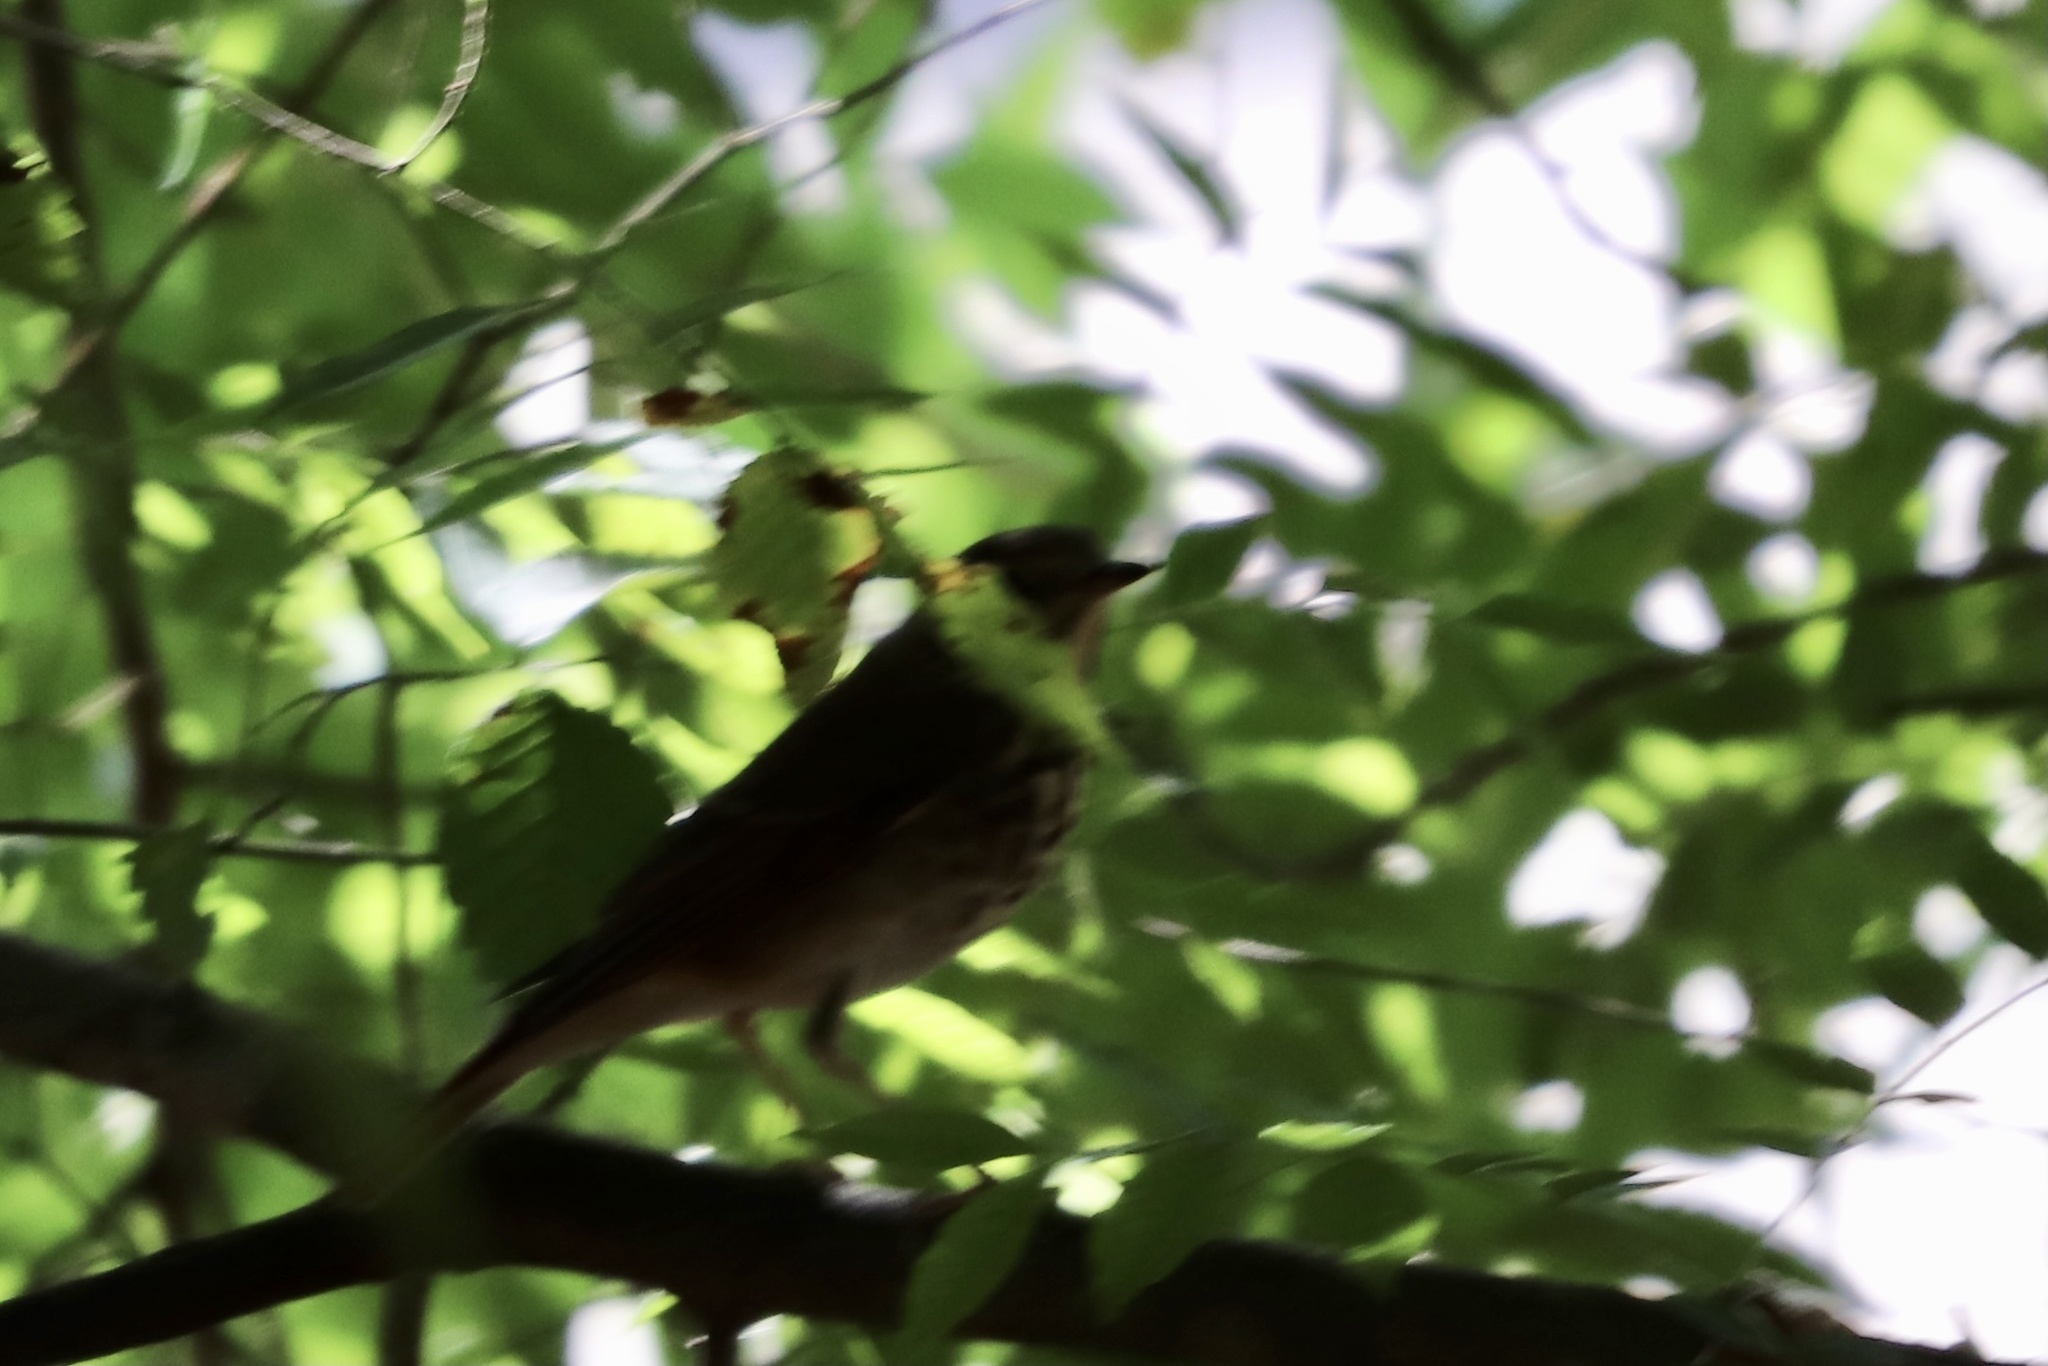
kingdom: Animalia
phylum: Chordata
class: Aves
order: Passeriformes
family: Turdidae
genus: Catharus
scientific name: Catharus guttatus
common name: Hermit thrush
